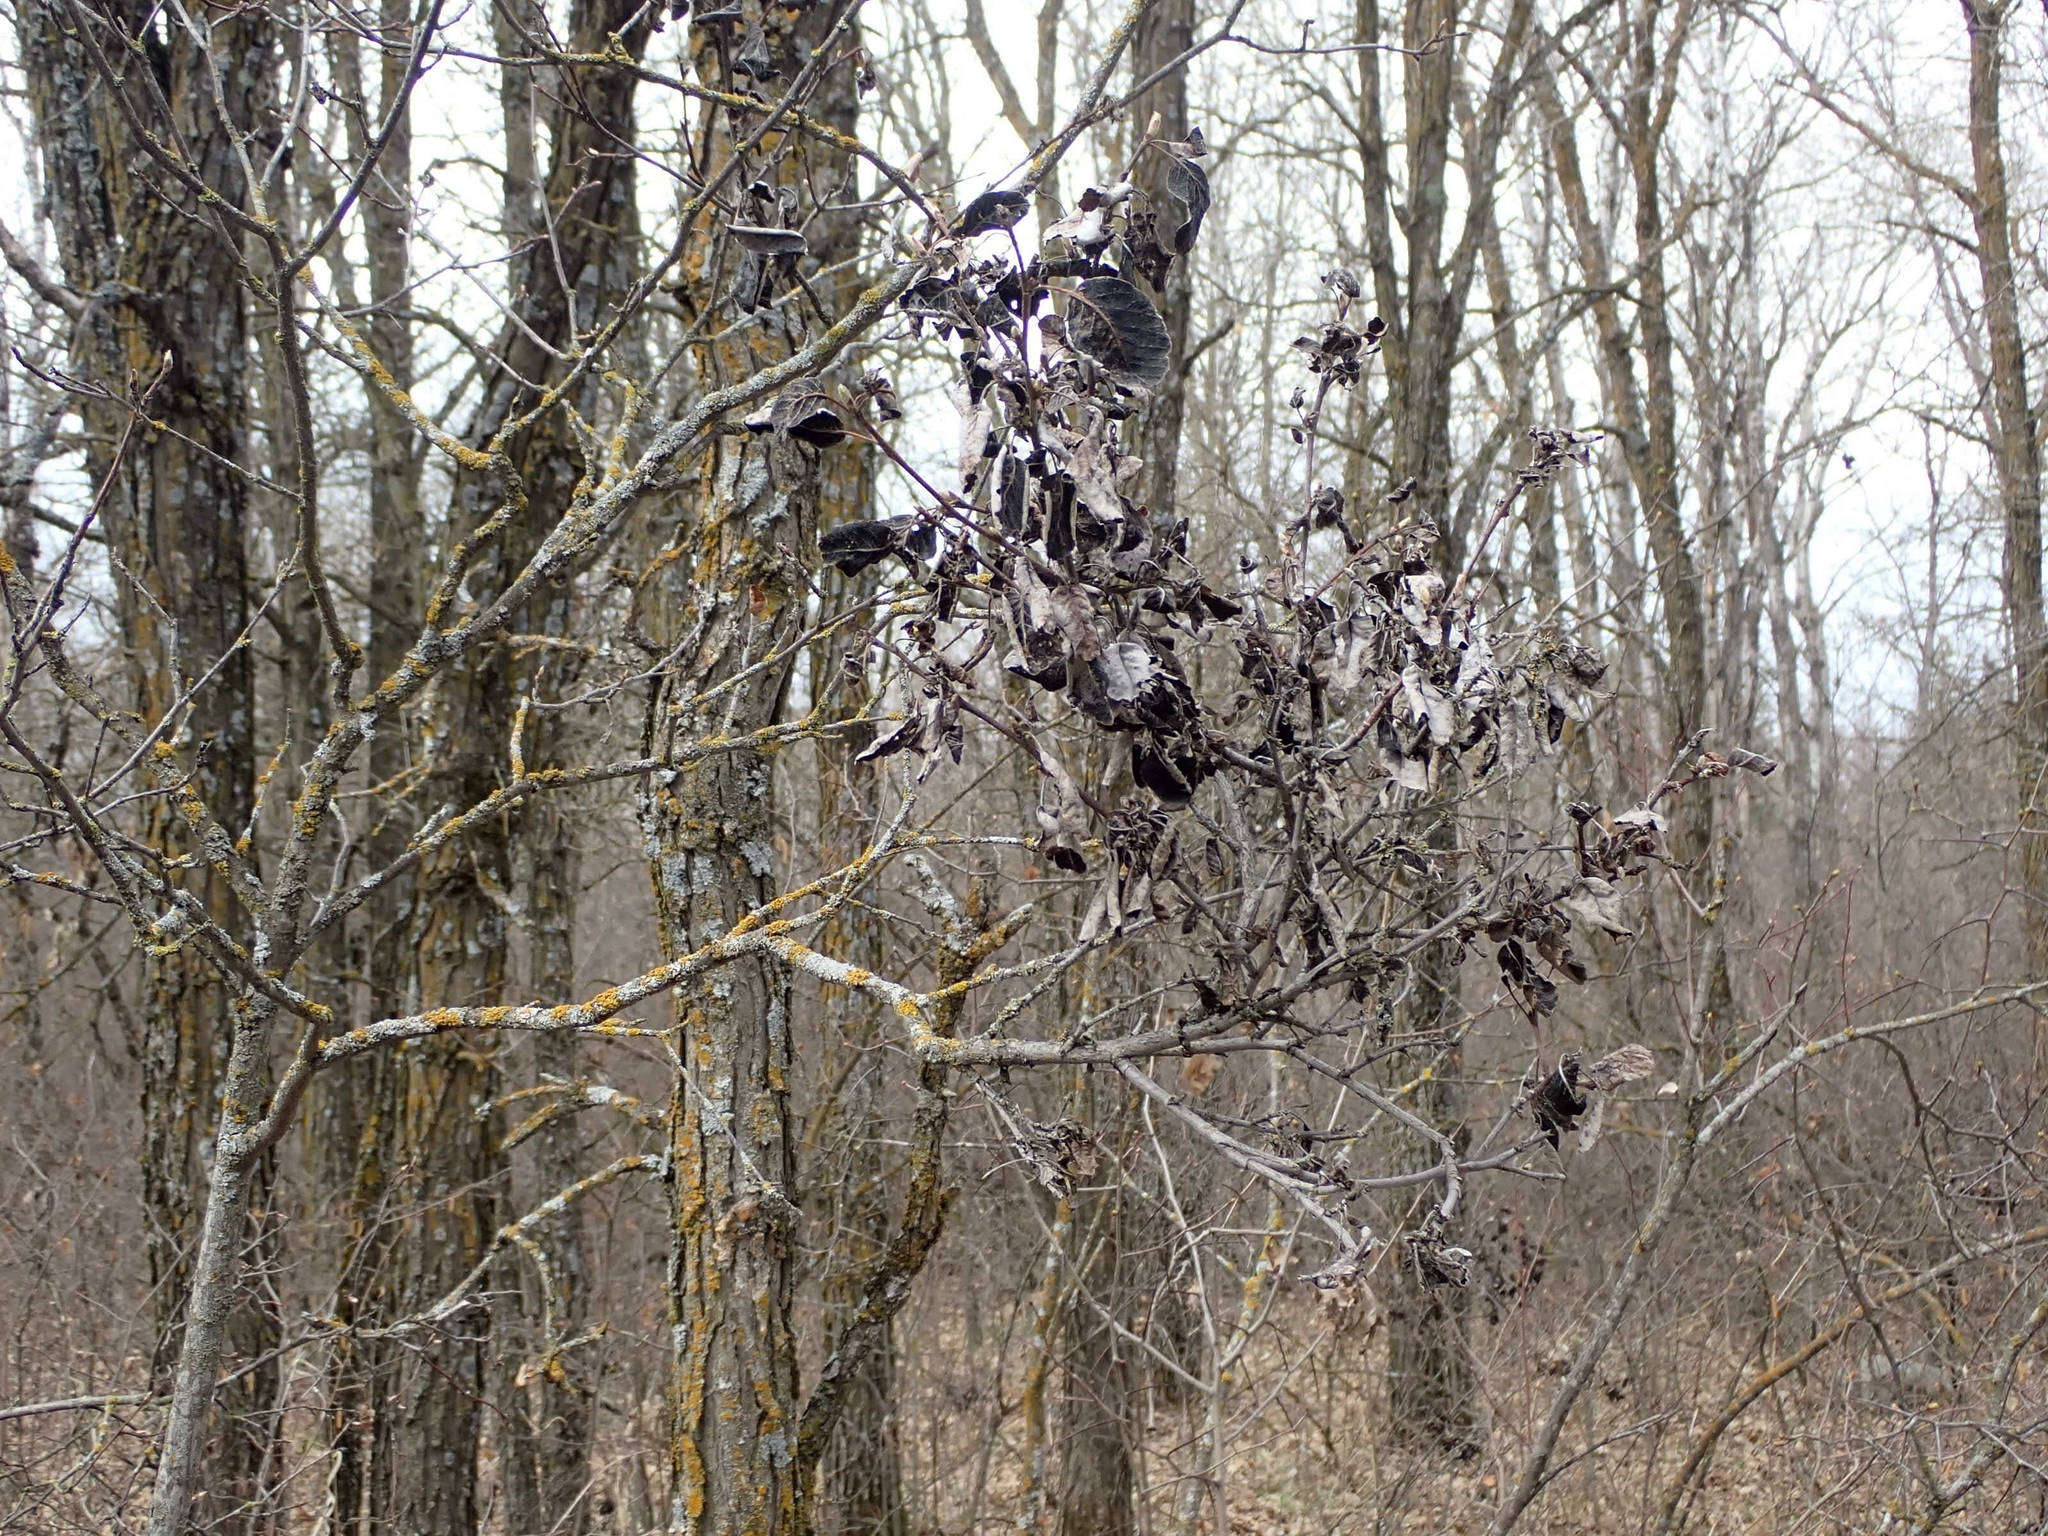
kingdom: Fungi
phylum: Ascomycota
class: Dothideomycetes
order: Venturiales
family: Venturiaceae
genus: Apiosporina
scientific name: Apiosporina collinsii
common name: Black leaf
